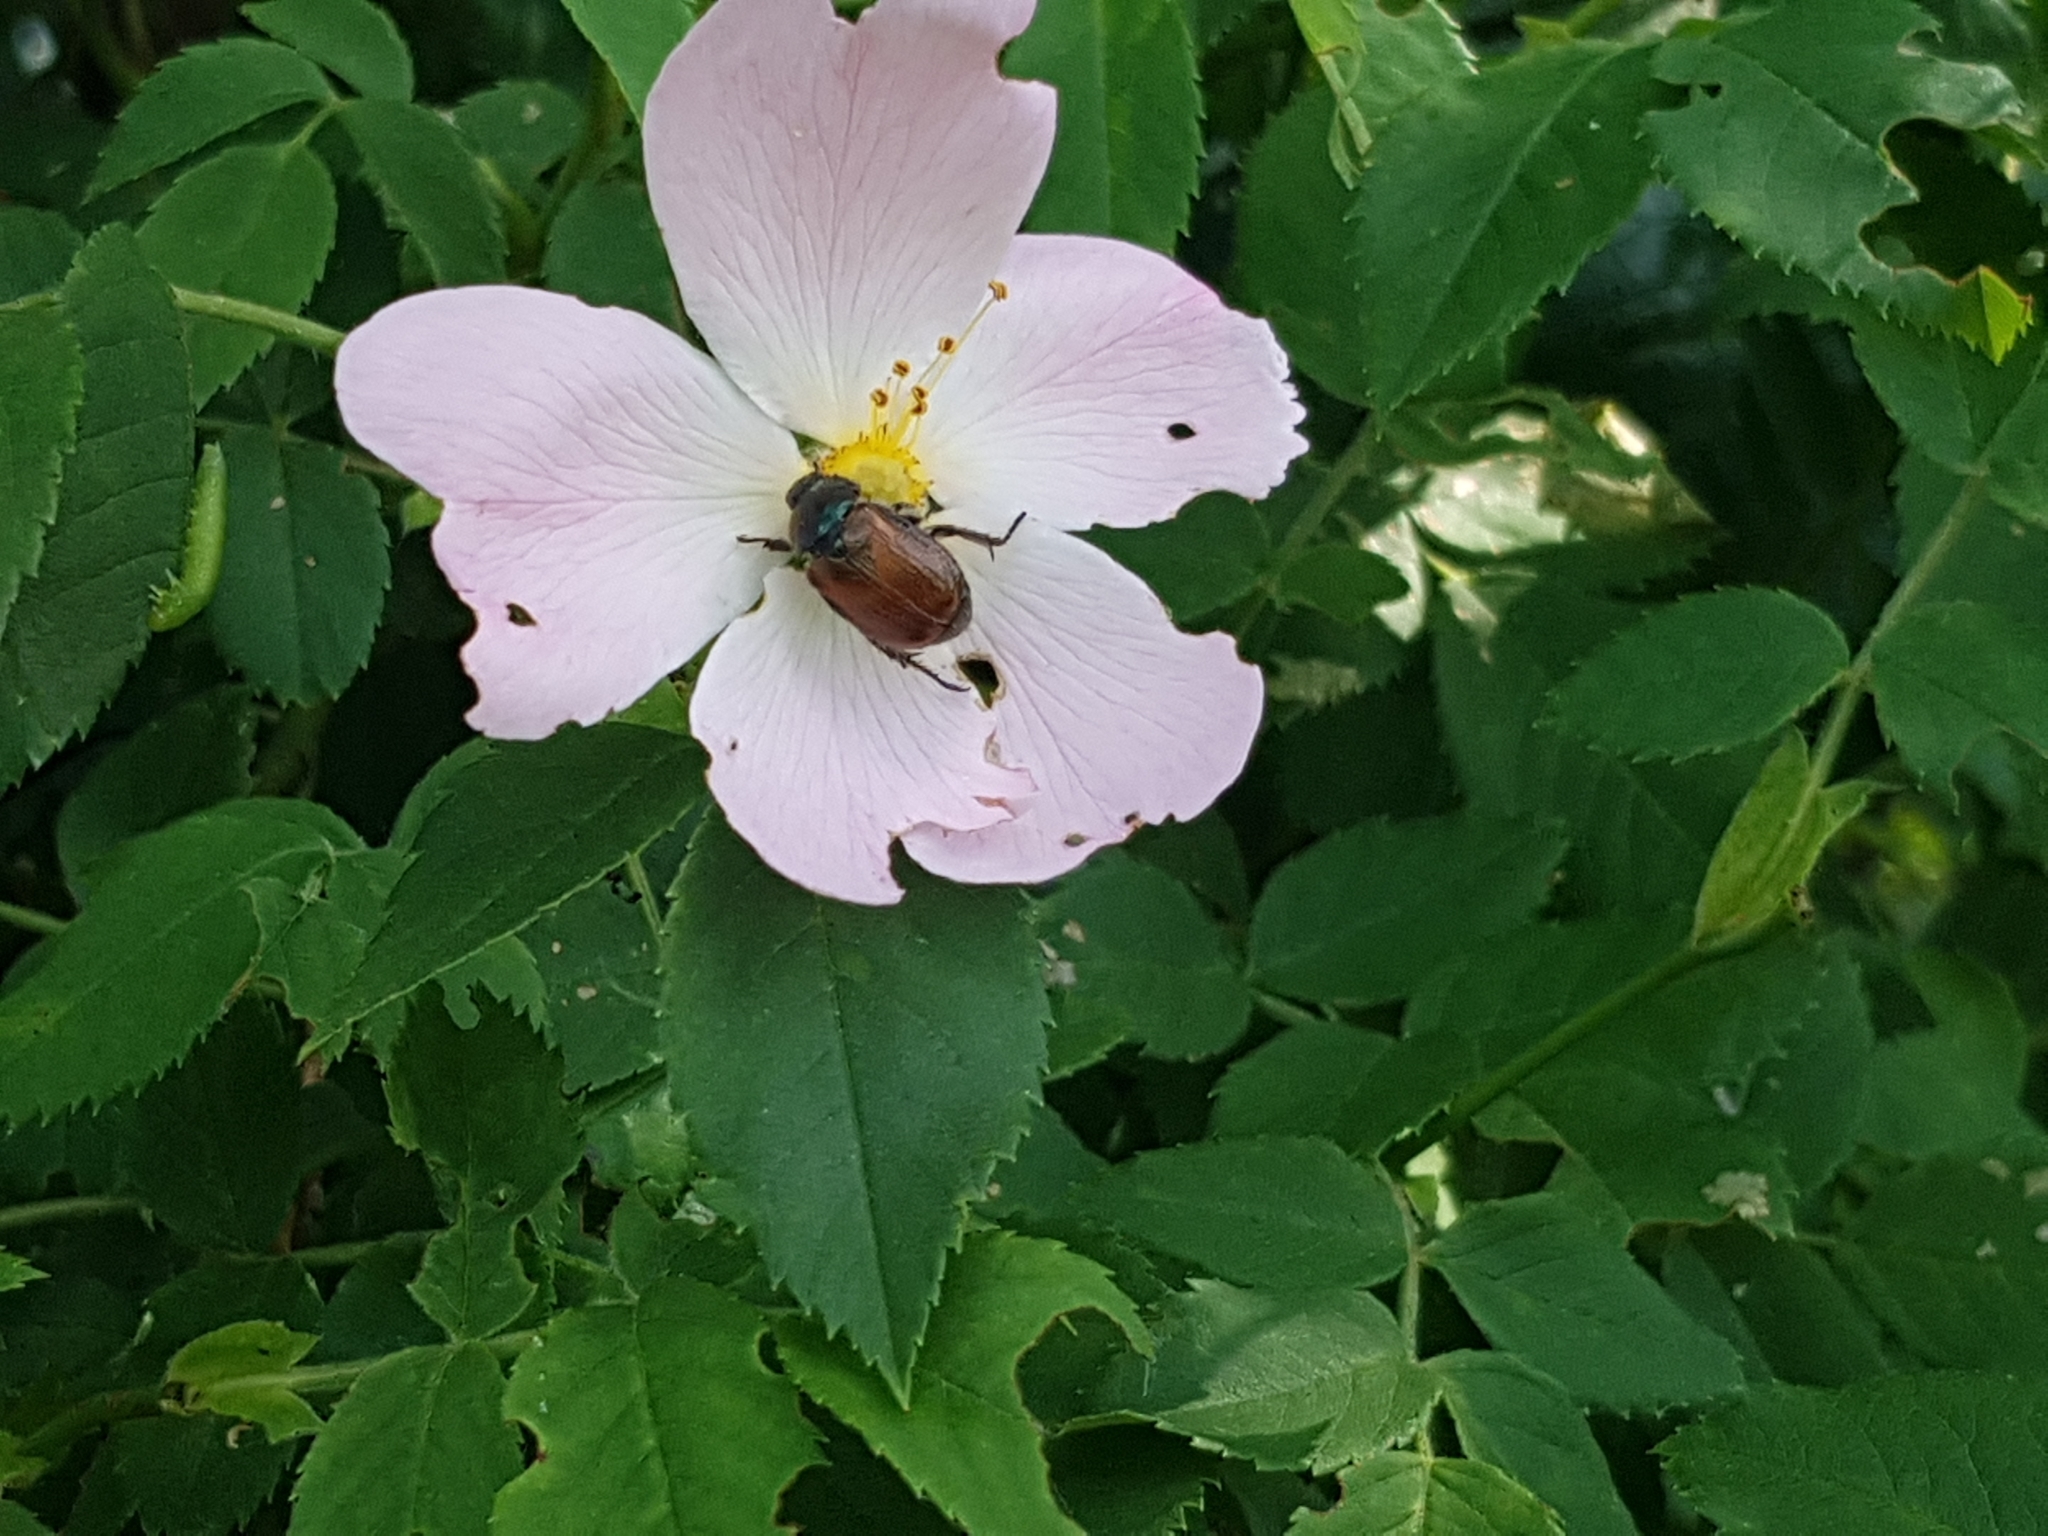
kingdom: Animalia
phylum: Arthropoda
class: Insecta
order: Coleoptera
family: Scarabaeidae
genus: Phyllopertha
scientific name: Phyllopertha horticola
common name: Garden chafer
